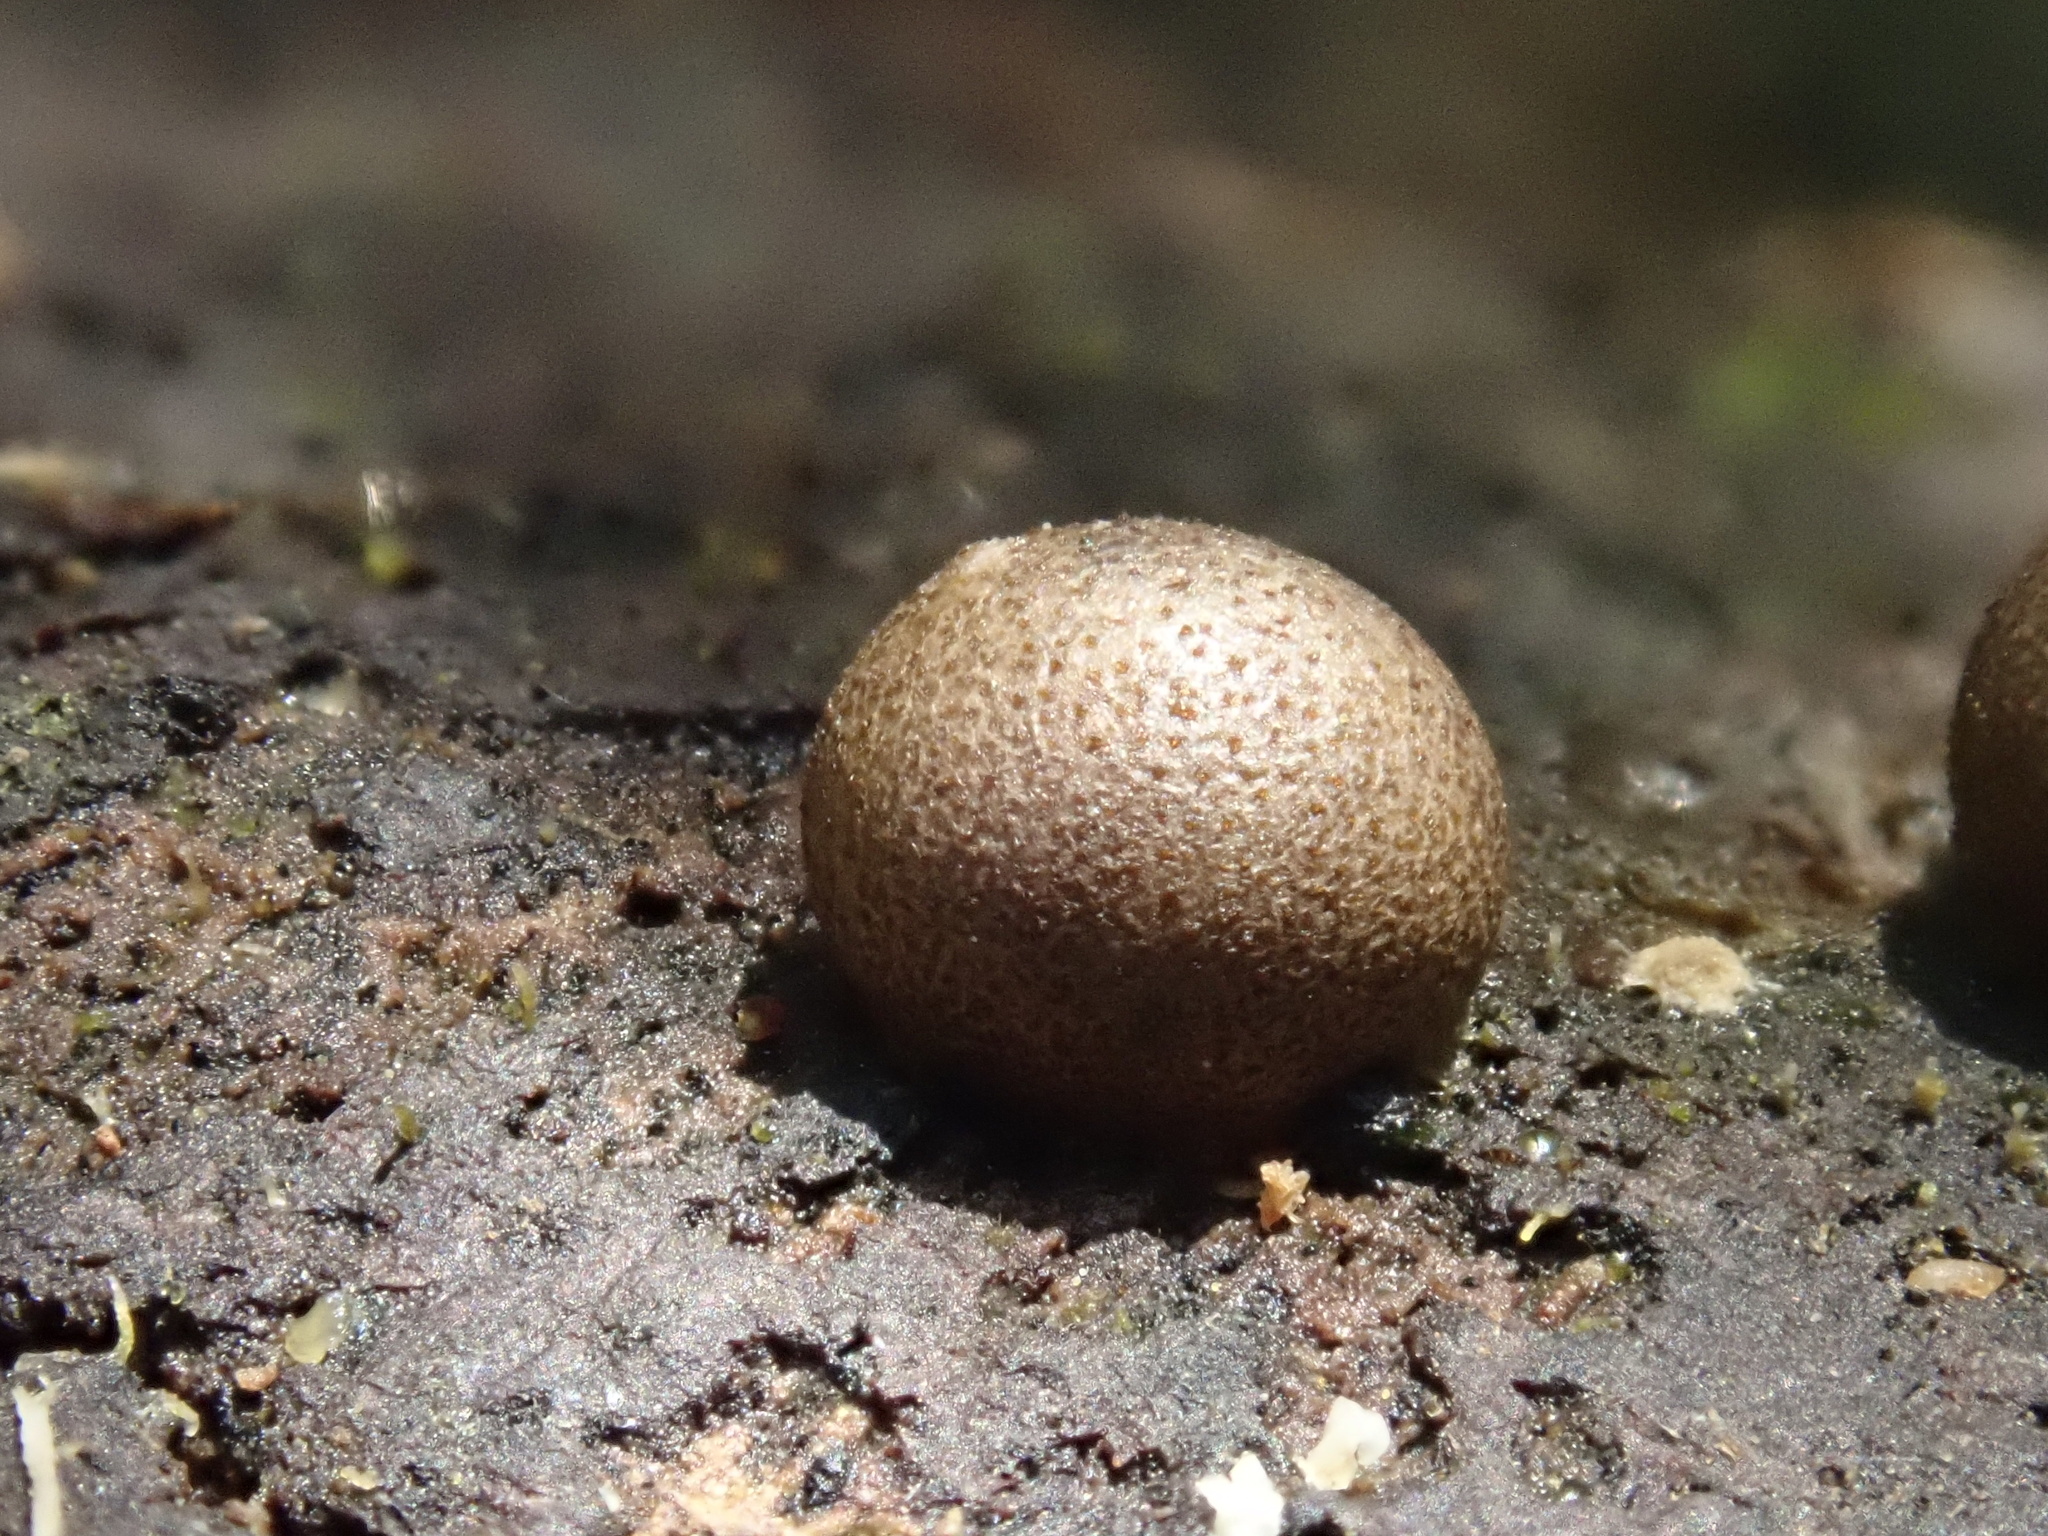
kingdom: Protozoa
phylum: Mycetozoa
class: Myxomycetes
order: Cribrariales
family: Tubiferaceae
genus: Lycogala
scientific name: Lycogala epidendrum
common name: Wolf's milk
